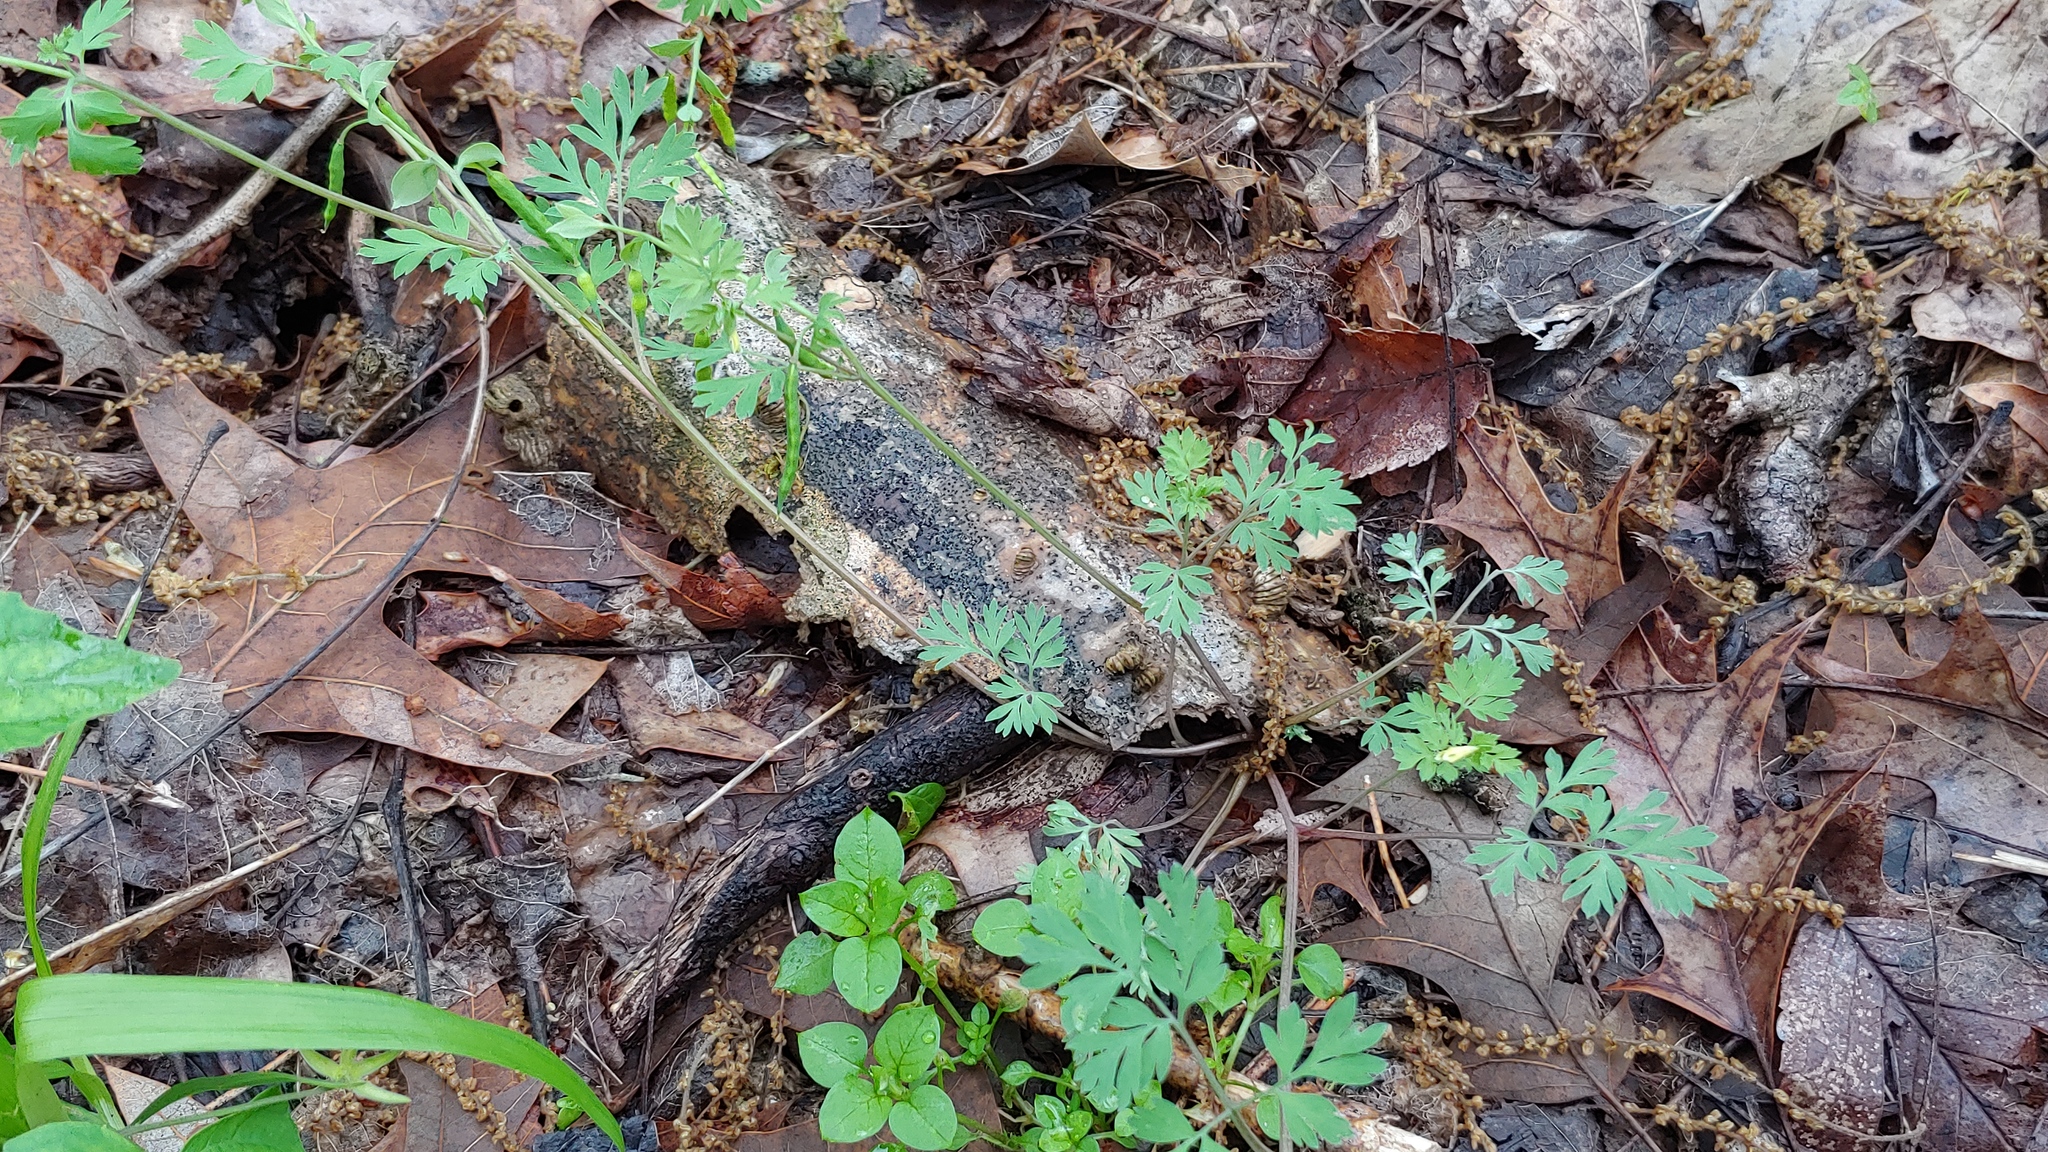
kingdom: Plantae
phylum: Tracheophyta
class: Magnoliopsida
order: Ranunculales
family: Papaveraceae
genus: Corydalis
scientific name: Corydalis flavula
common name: Yellow corydalis
